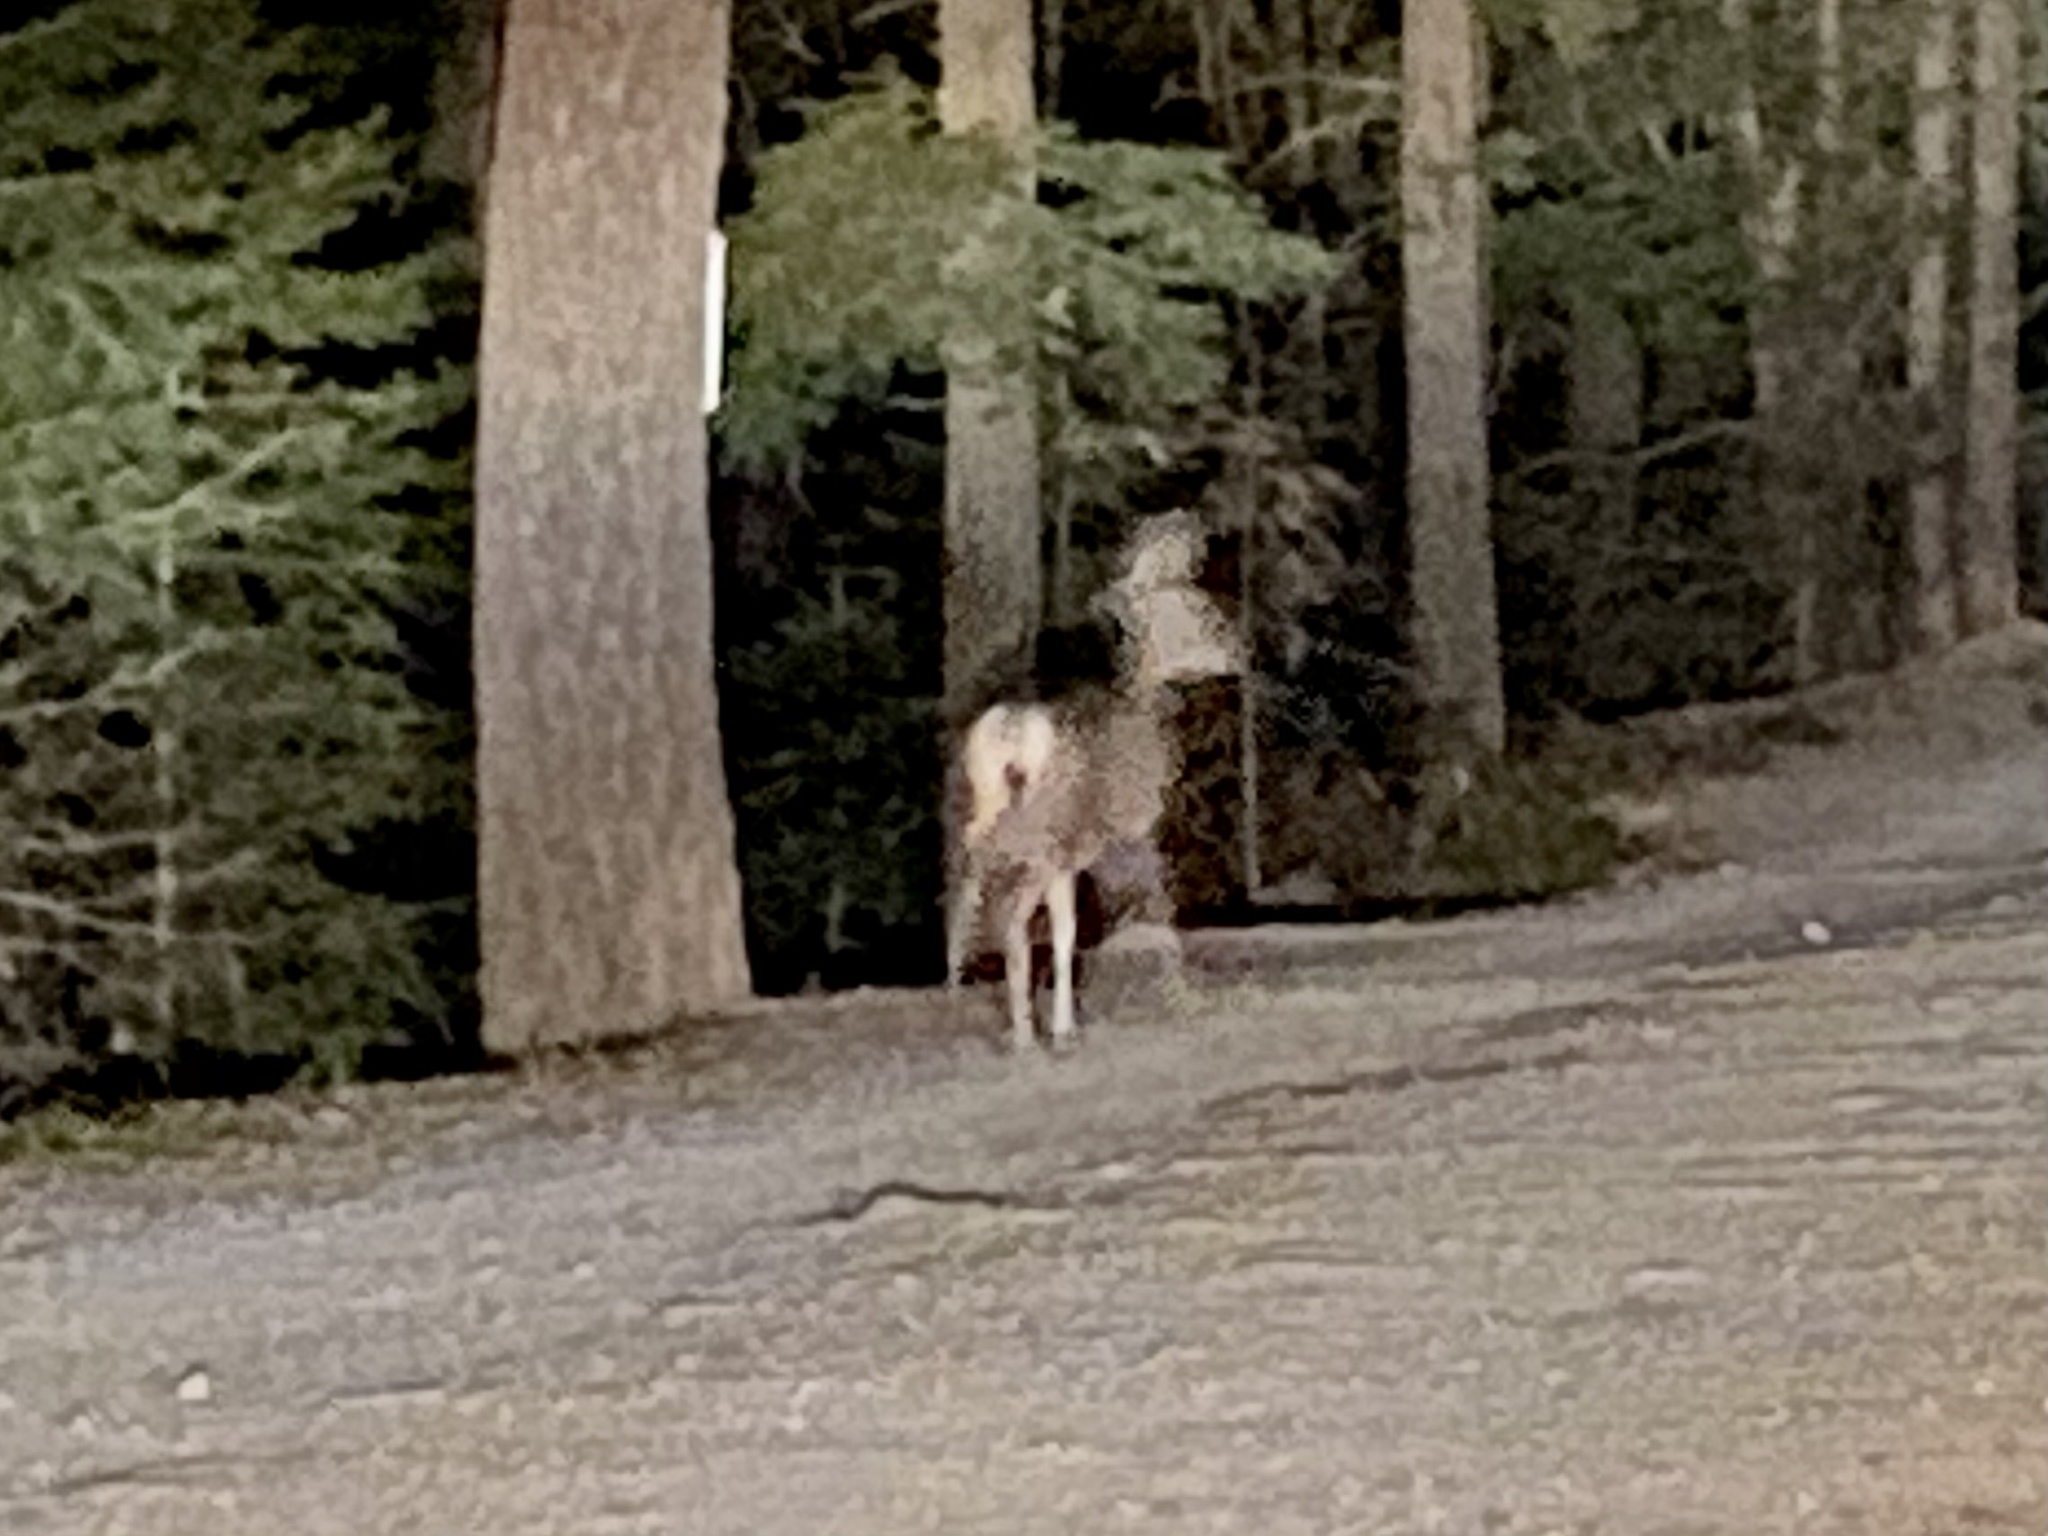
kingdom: Animalia
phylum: Chordata
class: Mammalia
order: Artiodactyla
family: Cervidae
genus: Odocoileus
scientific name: Odocoileus hemionus
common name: Mule deer
